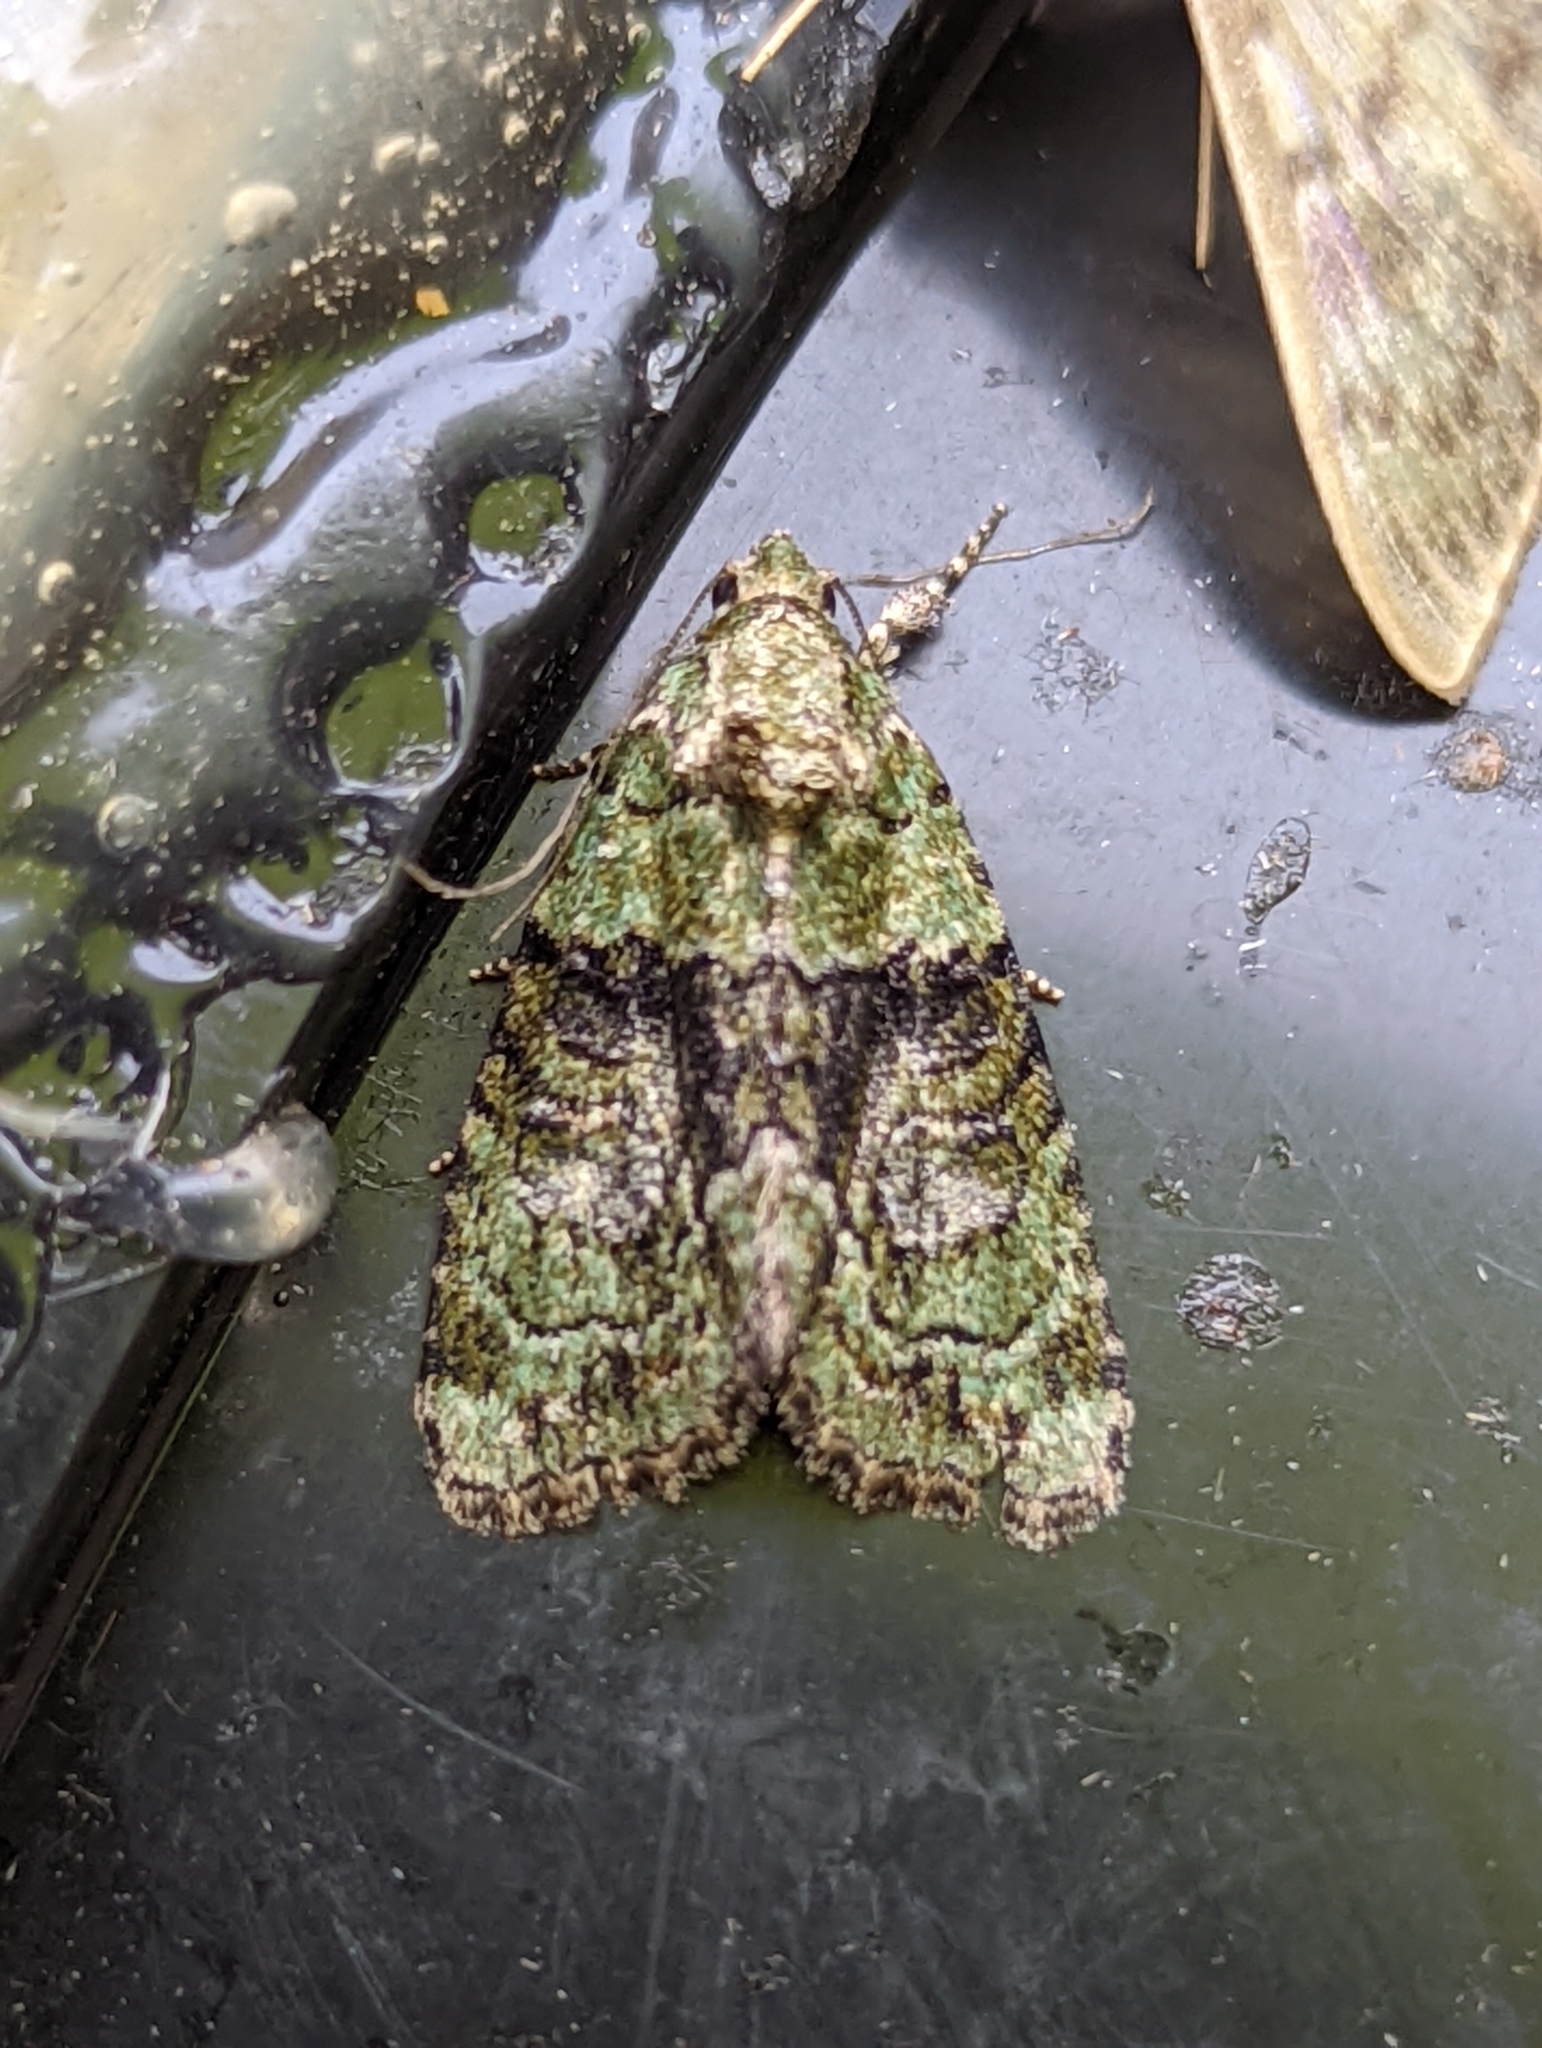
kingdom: Animalia
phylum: Arthropoda
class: Insecta
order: Lepidoptera
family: Noctuidae
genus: Cryphia
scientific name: Cryphia algae
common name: Tree-lichen beauty
